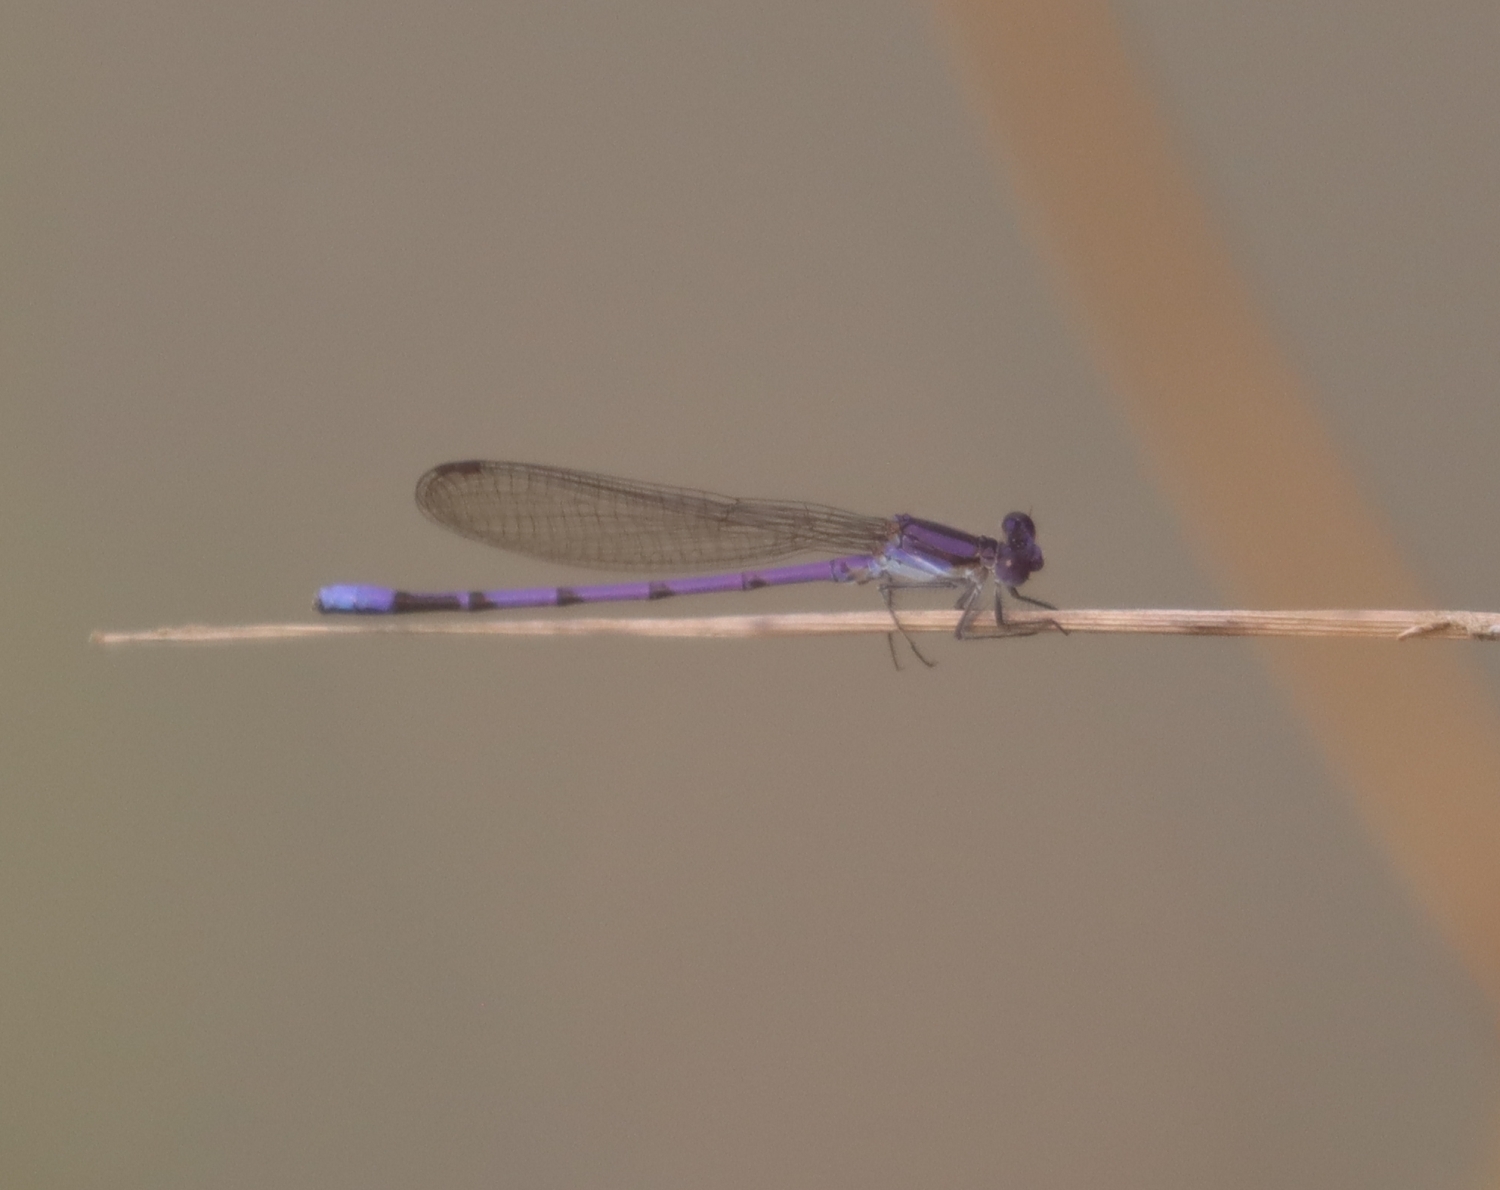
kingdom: Animalia
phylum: Arthropoda
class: Insecta
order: Odonata
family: Coenagrionidae
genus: Argia
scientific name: Argia fumipennis
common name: Variable dancer
